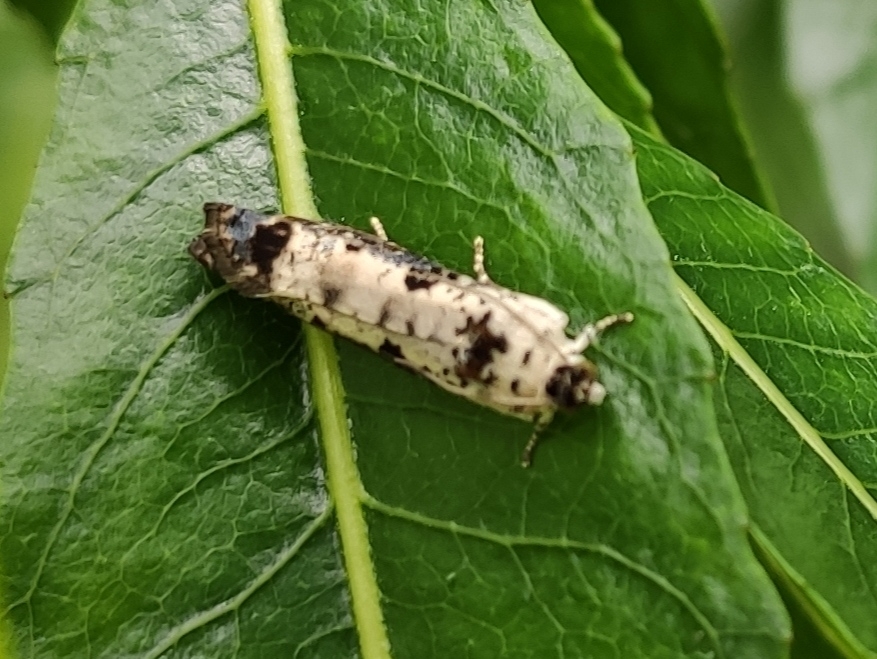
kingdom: Animalia
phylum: Arthropoda
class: Insecta
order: Lepidoptera
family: Tortricidae
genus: Hedya
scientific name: Hedya salicella
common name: Large tortricid moth
